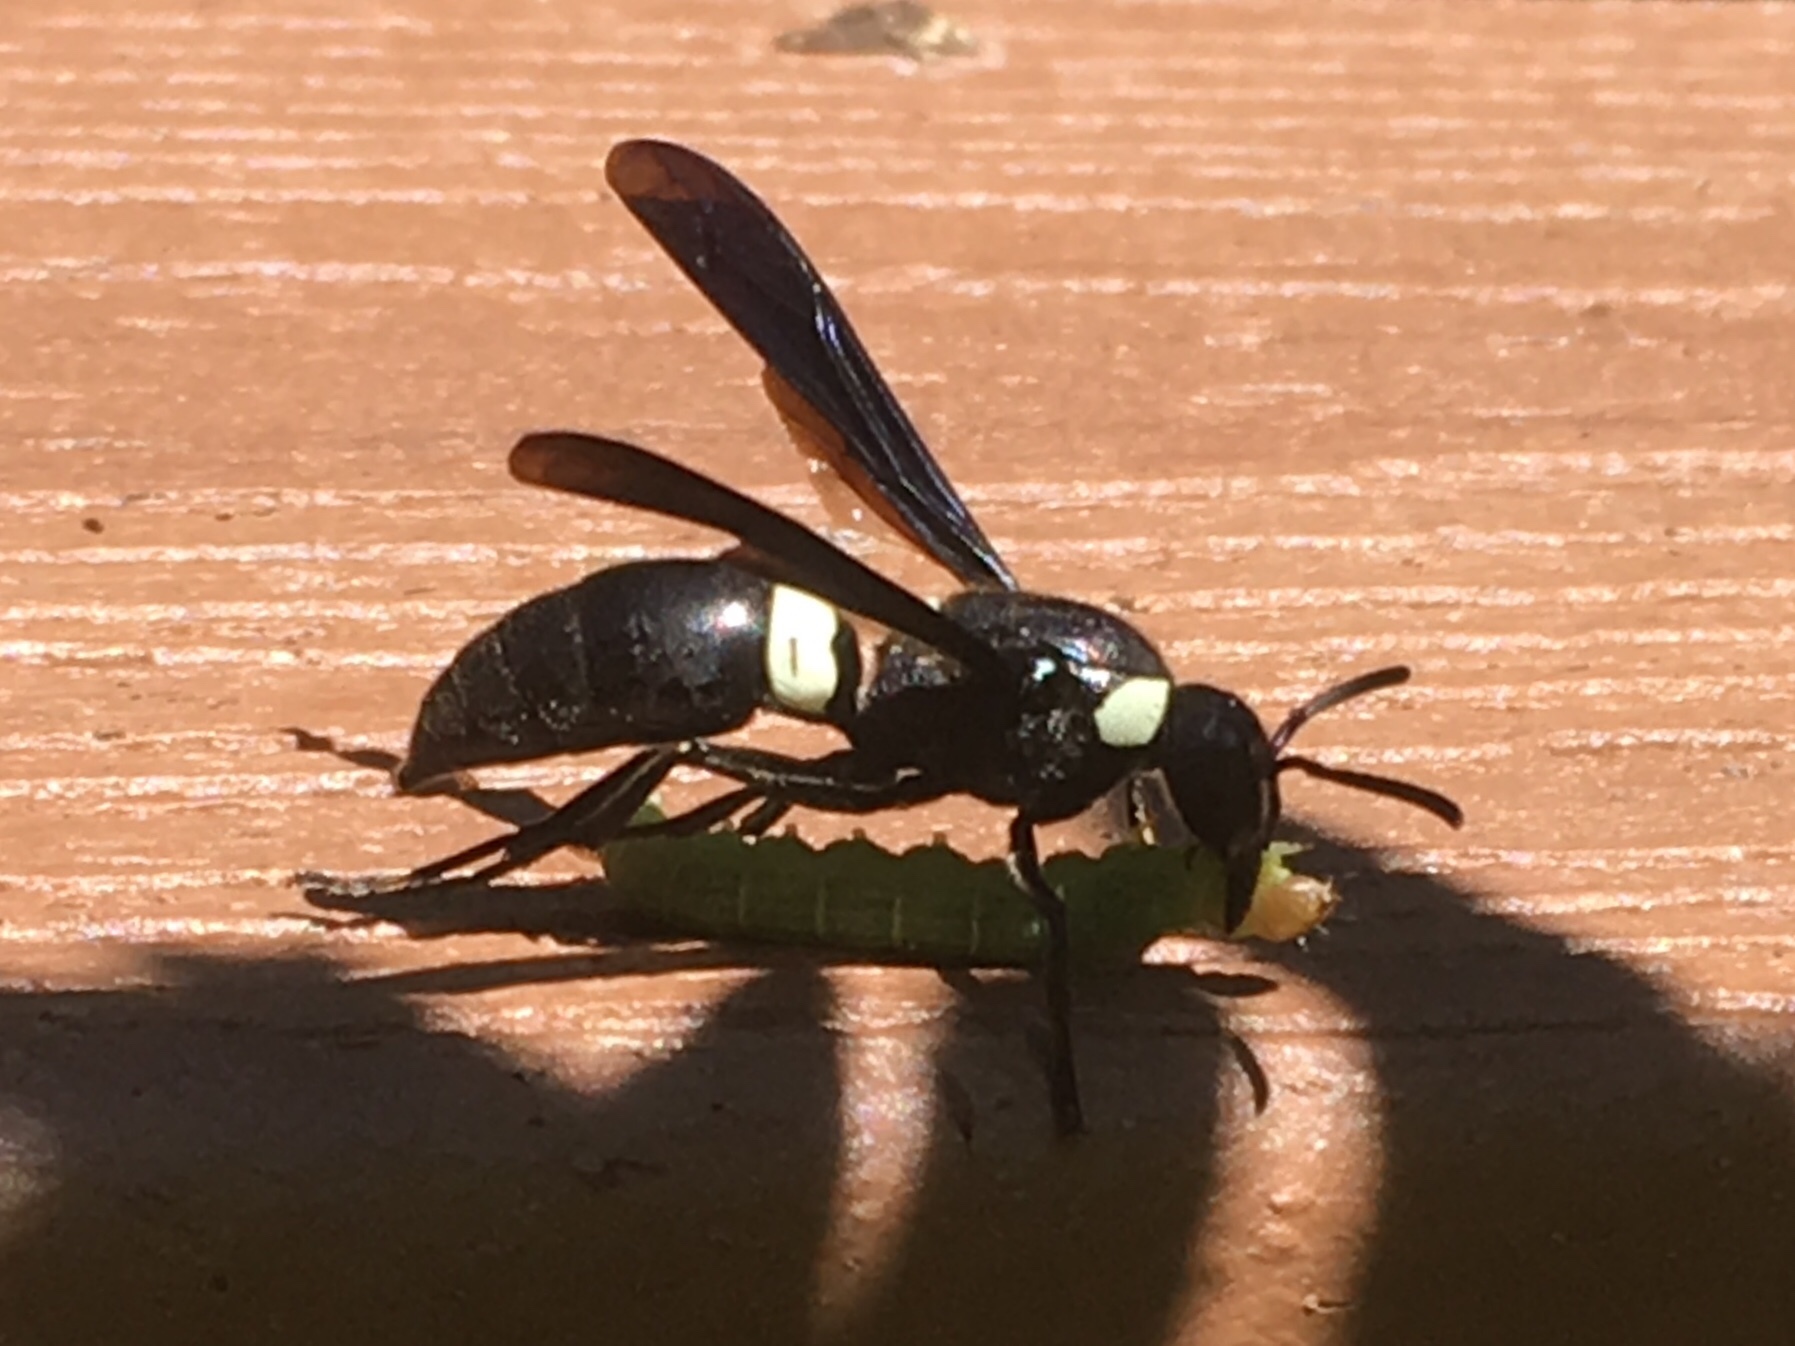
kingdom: Animalia
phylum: Arthropoda
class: Insecta
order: Hymenoptera
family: Eumenidae
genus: Monobia
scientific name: Monobia quadridens
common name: Four-toothed mason wasp
